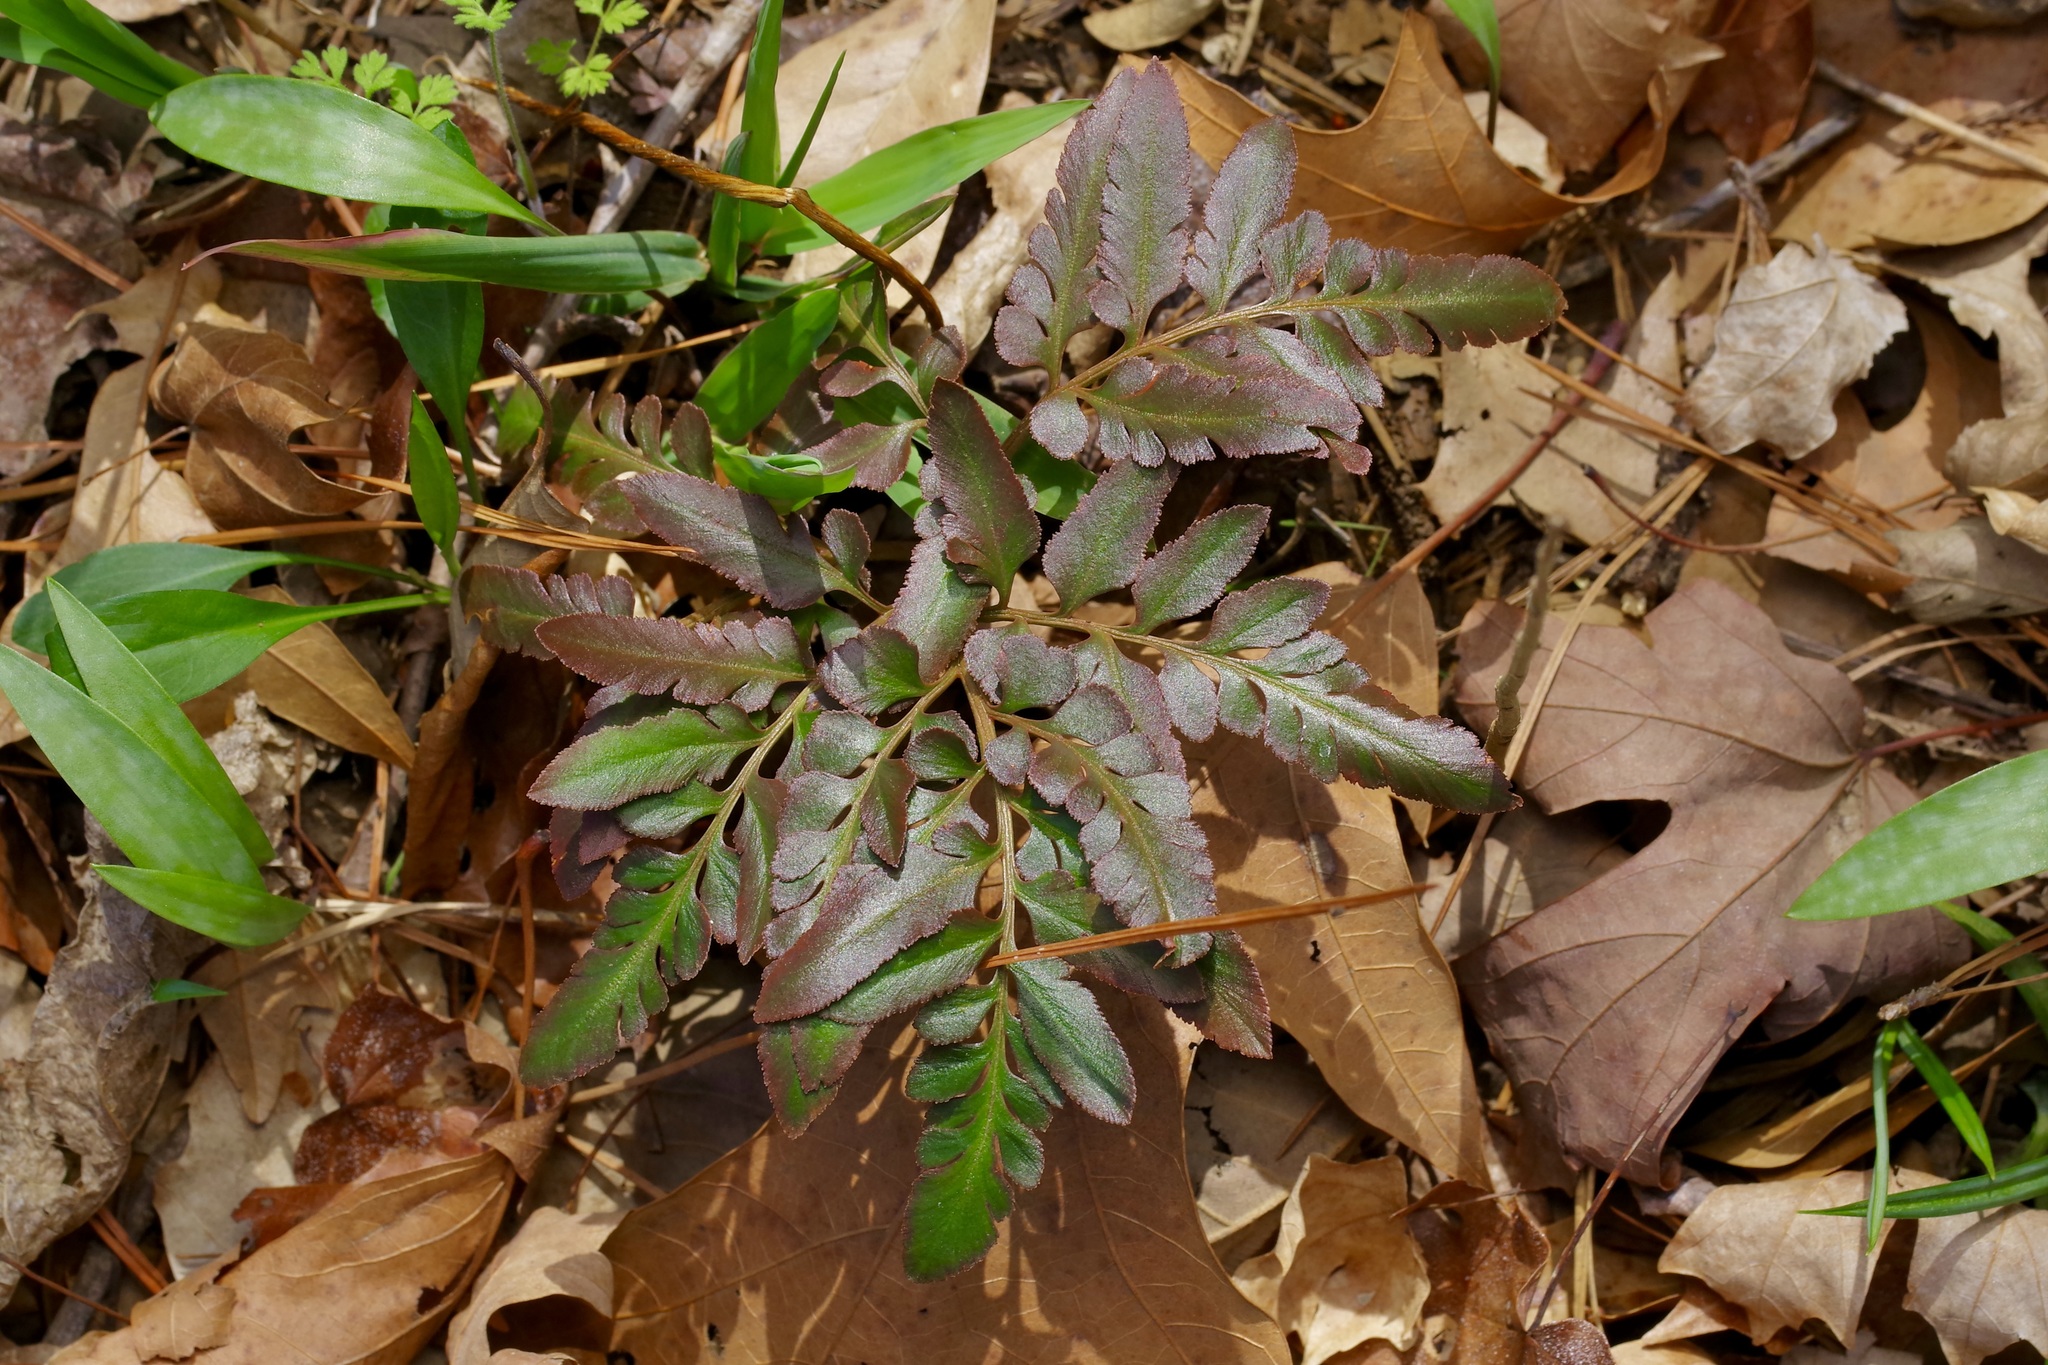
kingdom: Plantae
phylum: Tracheophyta
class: Polypodiopsida
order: Ophioglossales
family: Ophioglossaceae
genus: Sceptridium
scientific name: Sceptridium biternatum
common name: Sparse-lobed grapefern
